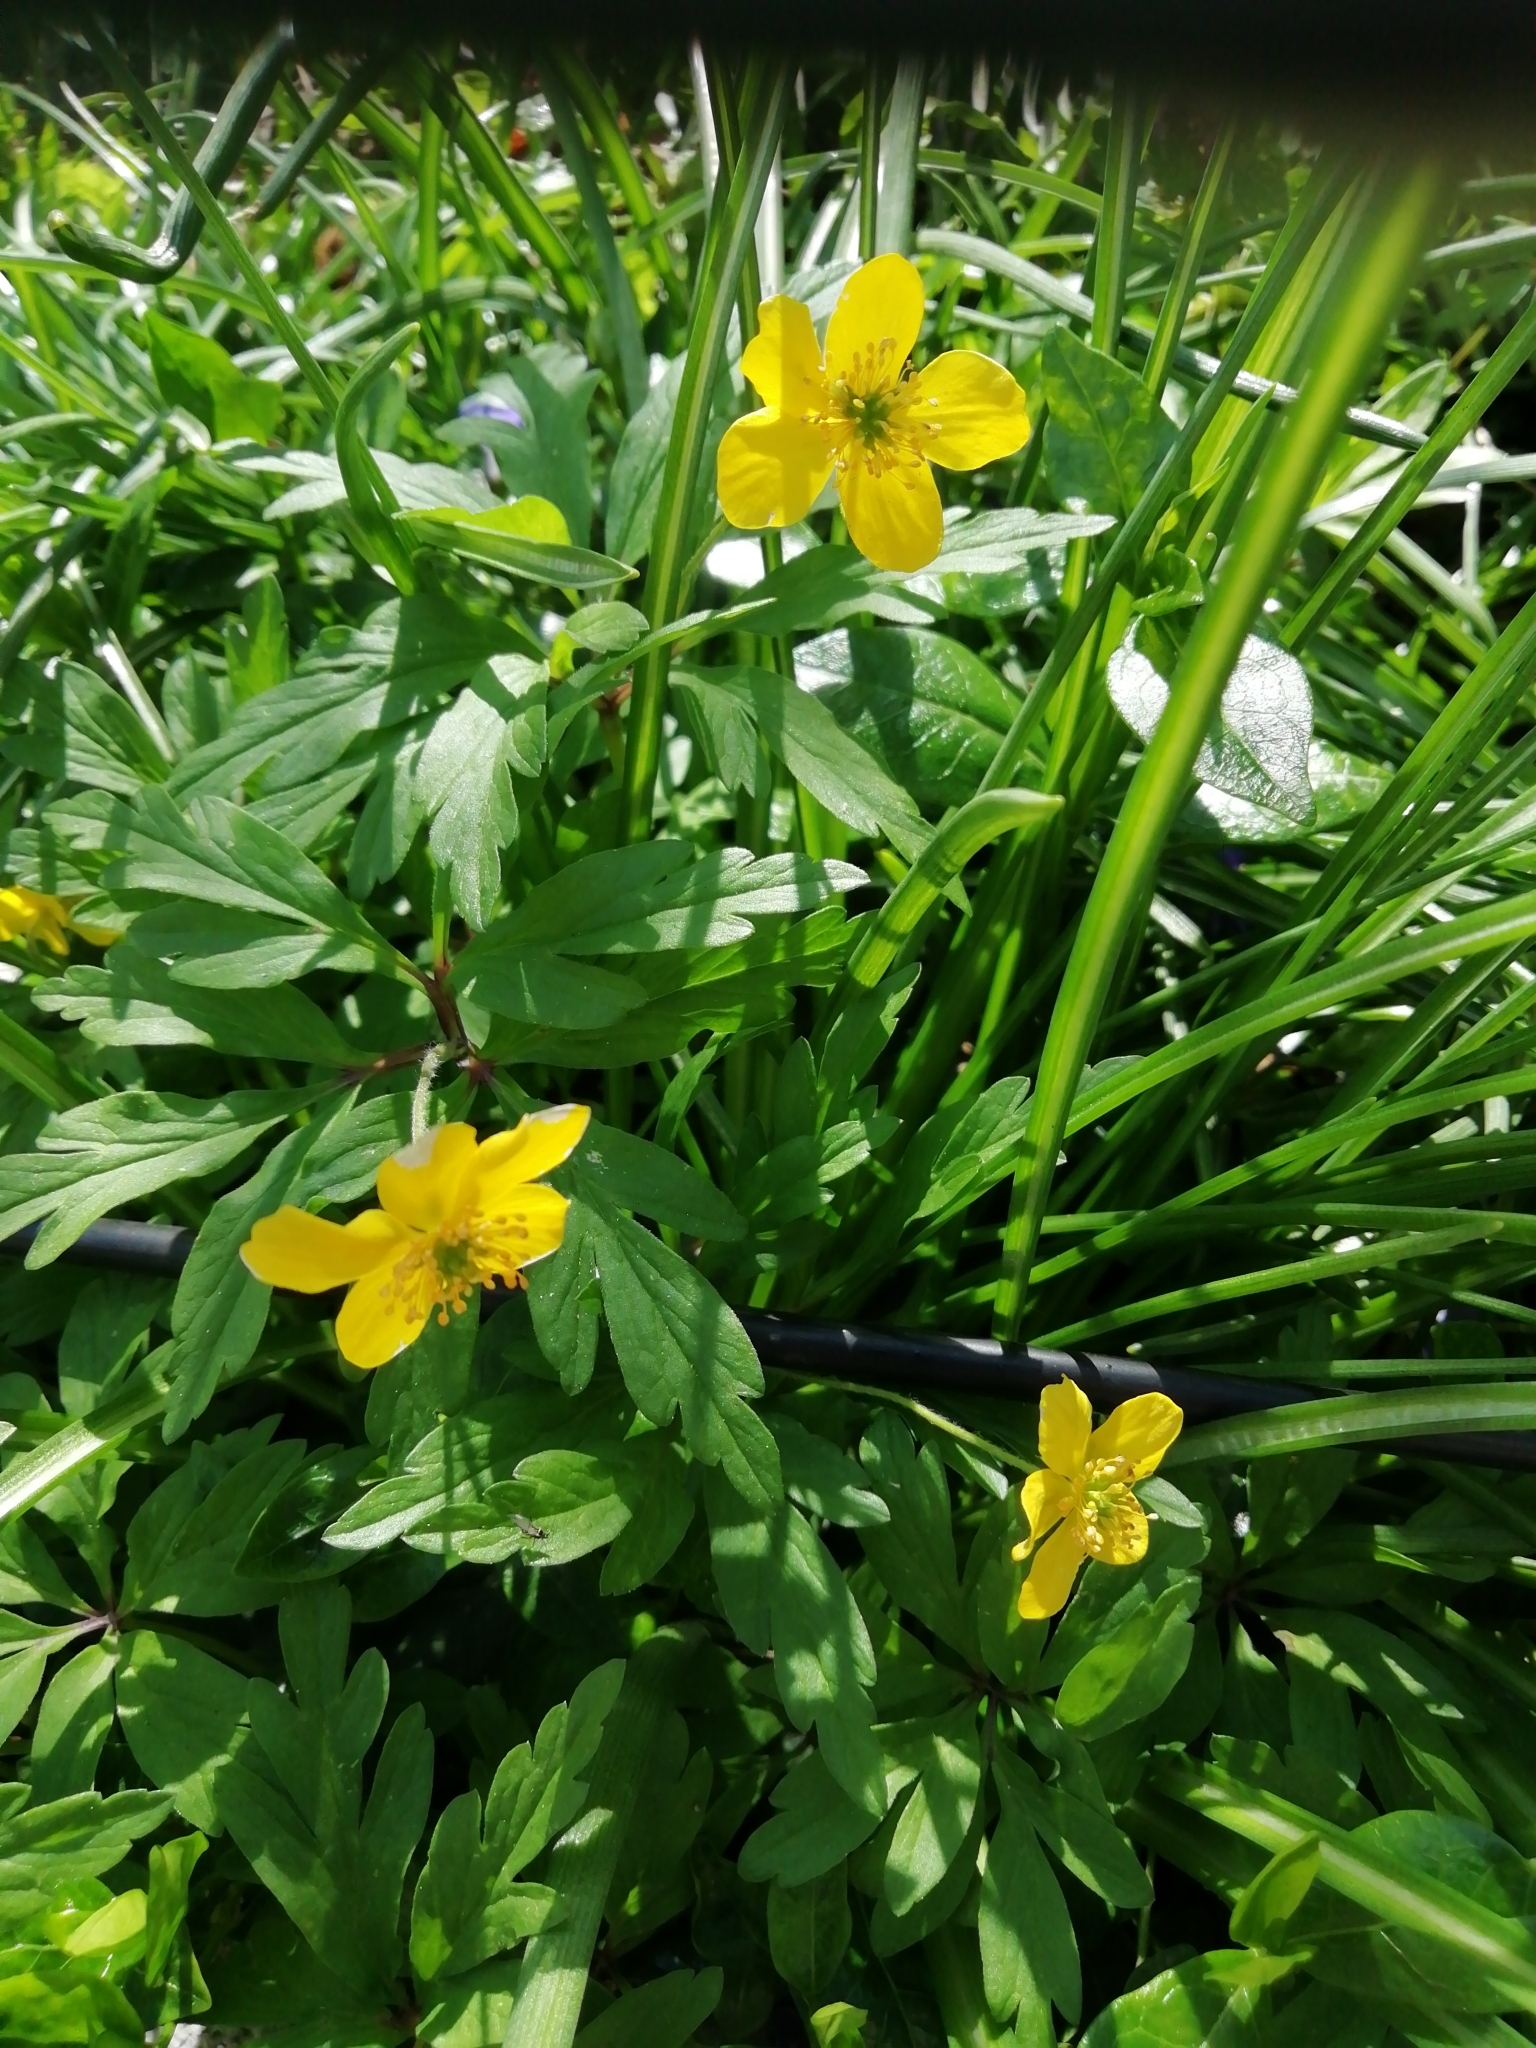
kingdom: Plantae
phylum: Tracheophyta
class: Magnoliopsida
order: Ranunculales
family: Ranunculaceae
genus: Anemone
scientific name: Anemone ranunculoides
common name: Yellow anemone
